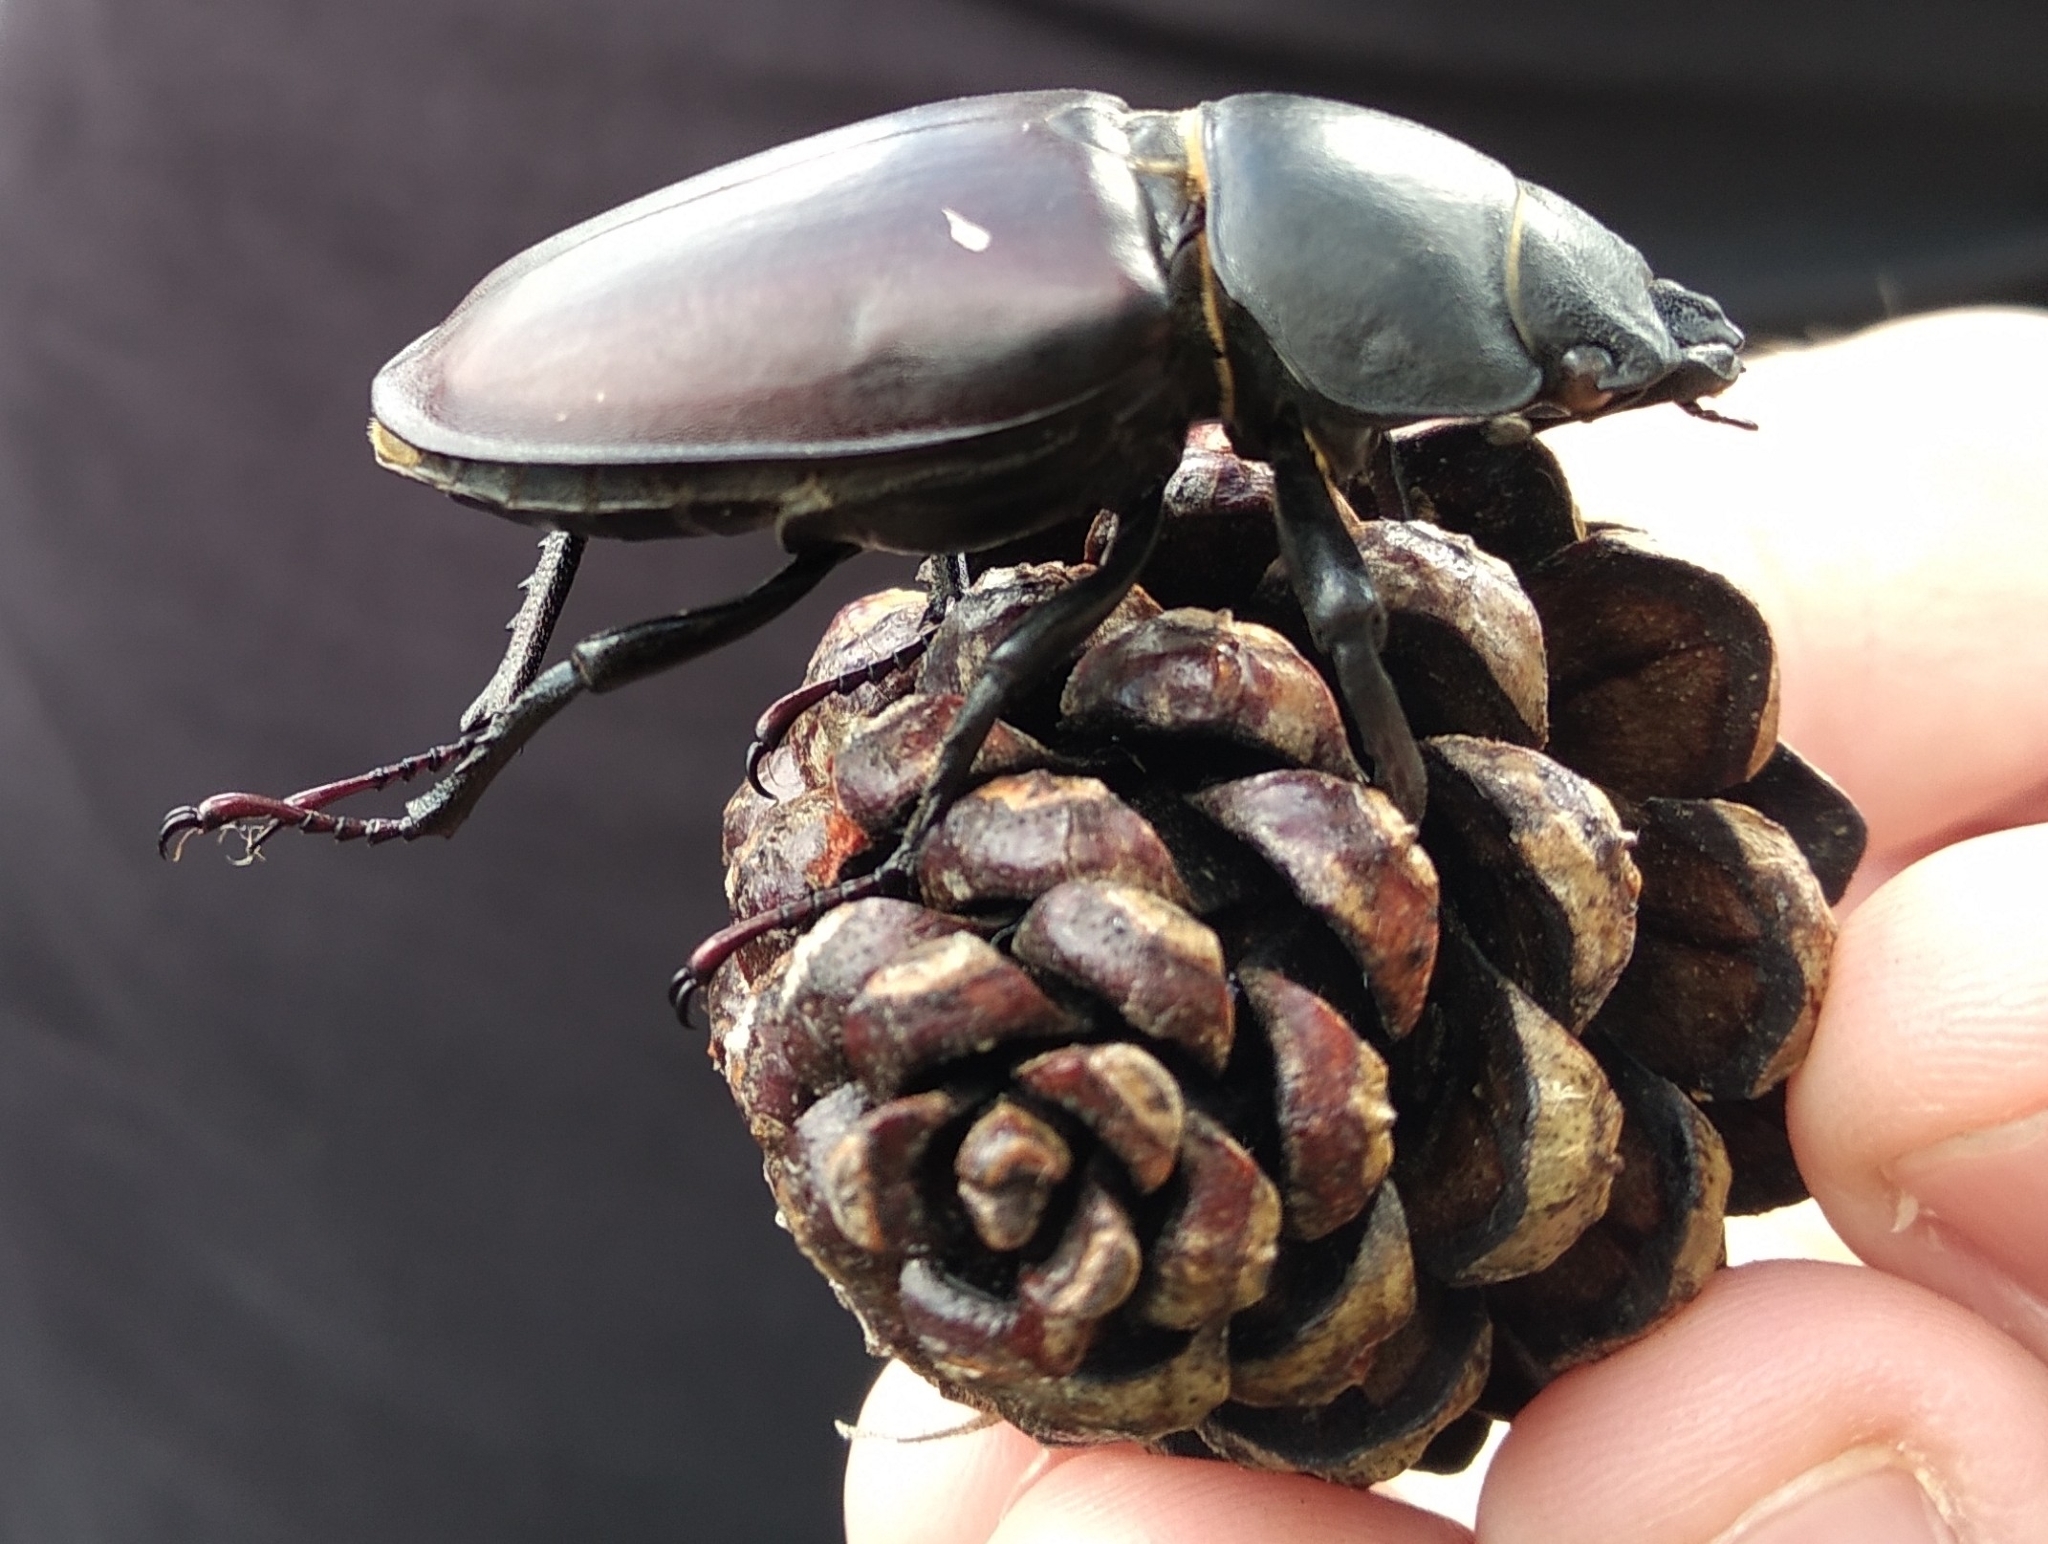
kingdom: Animalia
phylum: Arthropoda
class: Insecta
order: Coleoptera
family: Lucanidae
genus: Lucanus
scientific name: Lucanus cervus
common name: Stag beetle
